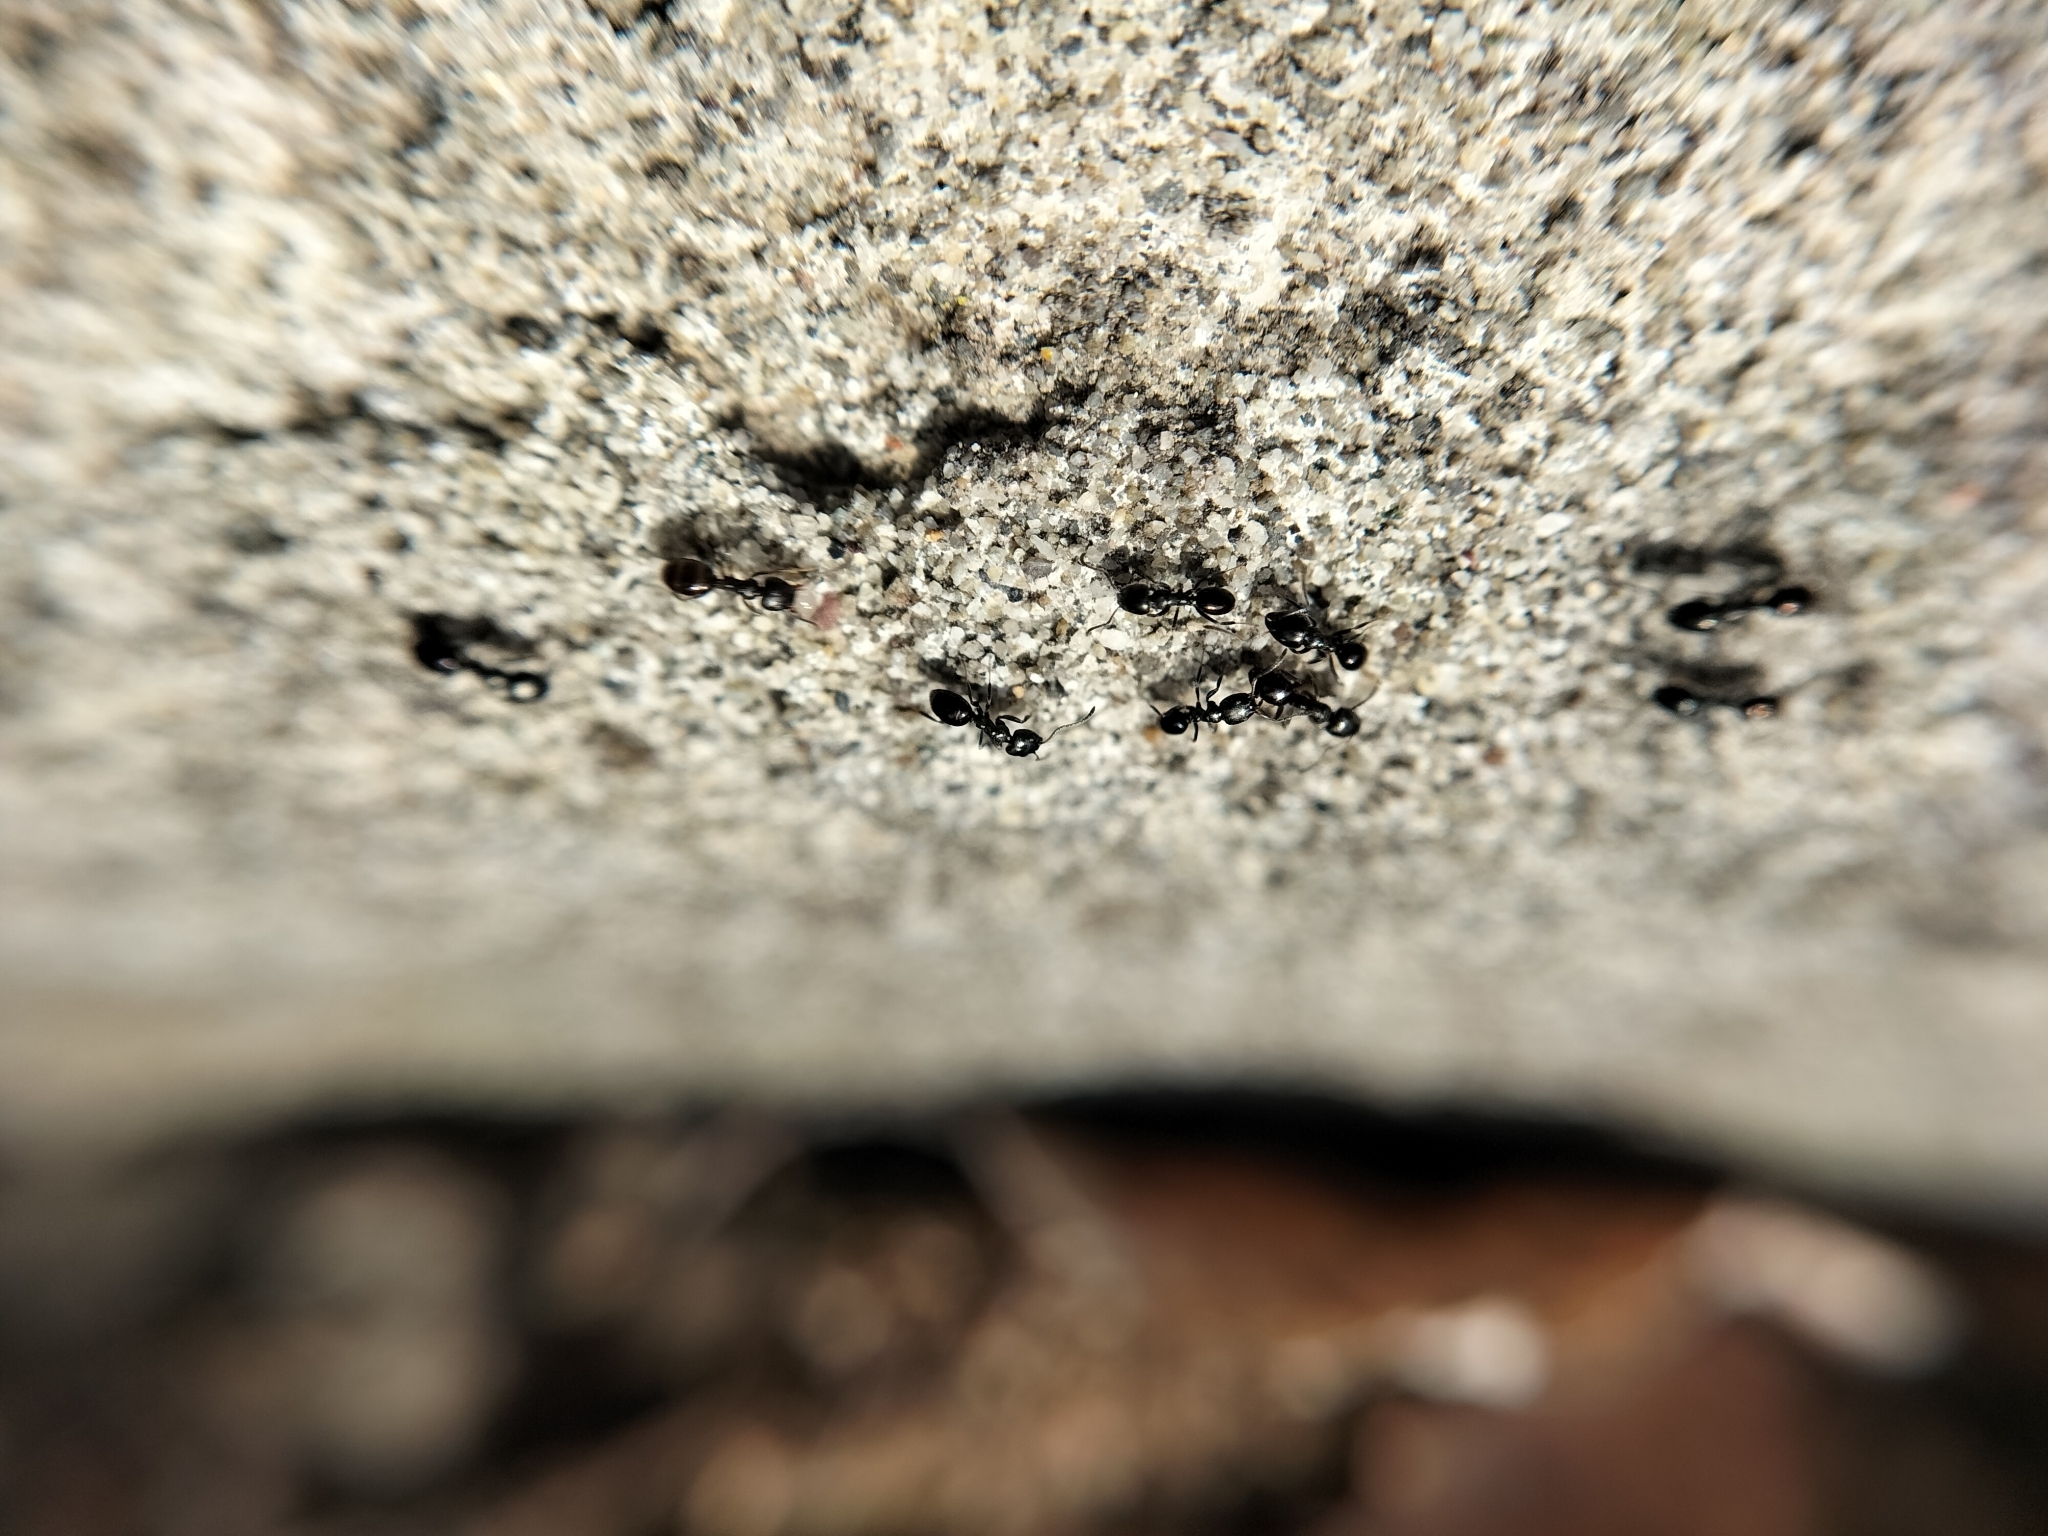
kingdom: Animalia
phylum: Arthropoda
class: Insecta
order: Hymenoptera
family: Formicidae
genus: Ochetellus
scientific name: Ochetellus glaber
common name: Ant
